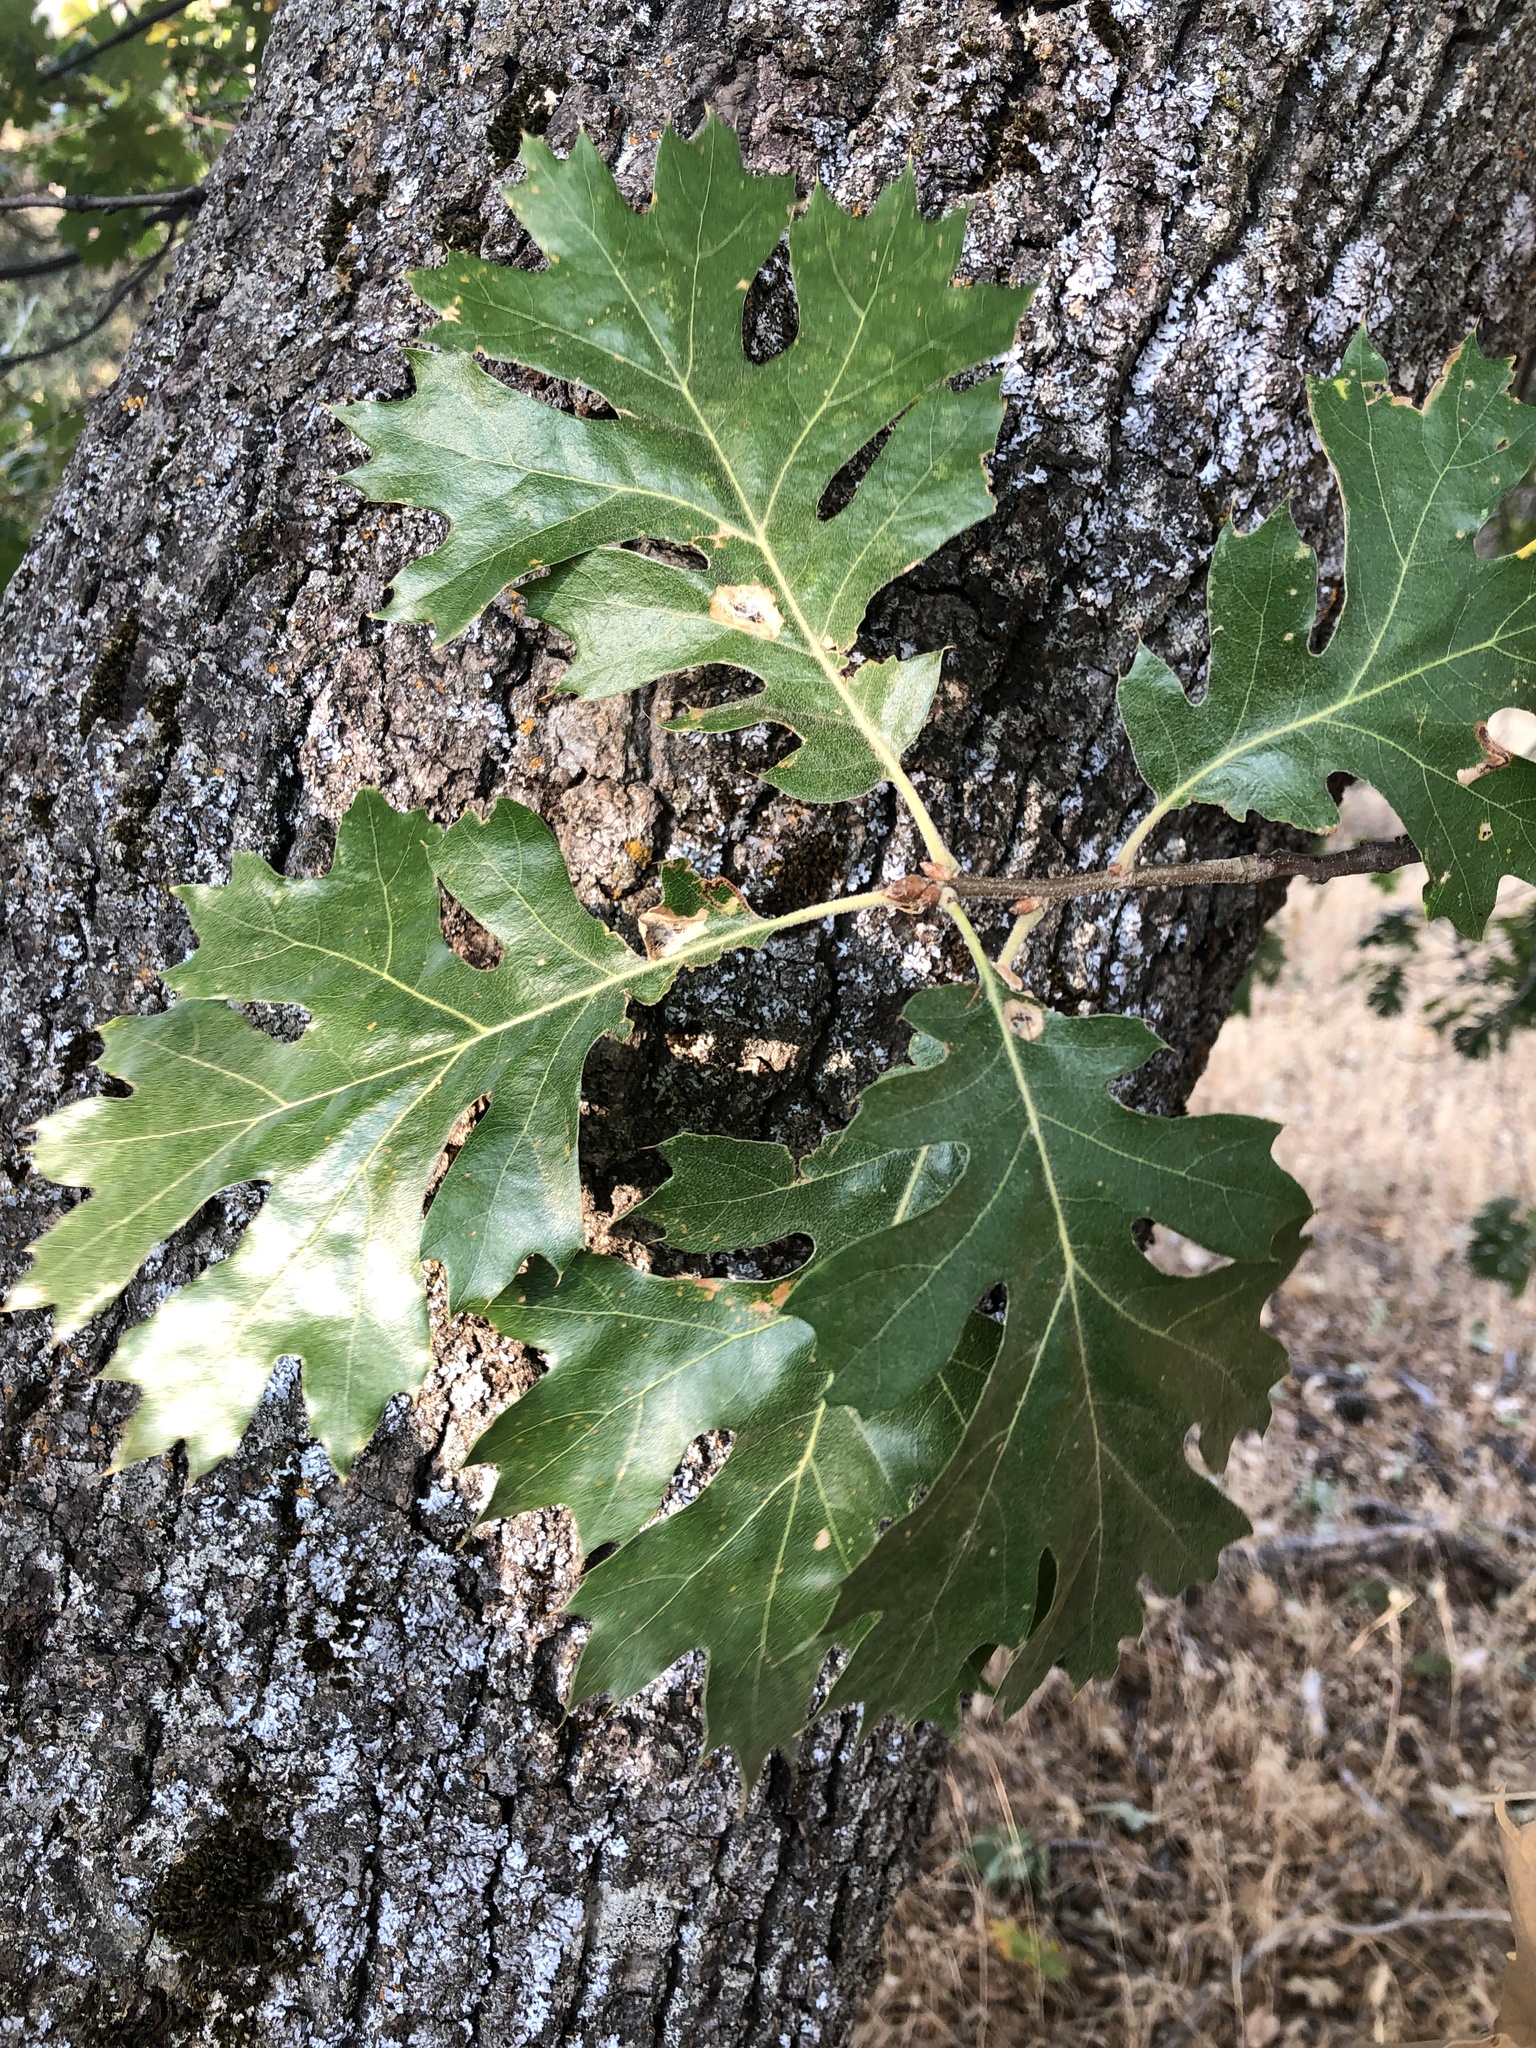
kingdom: Plantae
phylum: Tracheophyta
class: Magnoliopsida
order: Fagales
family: Fagaceae
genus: Quercus
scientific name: Quercus kelloggii
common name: California black oak
